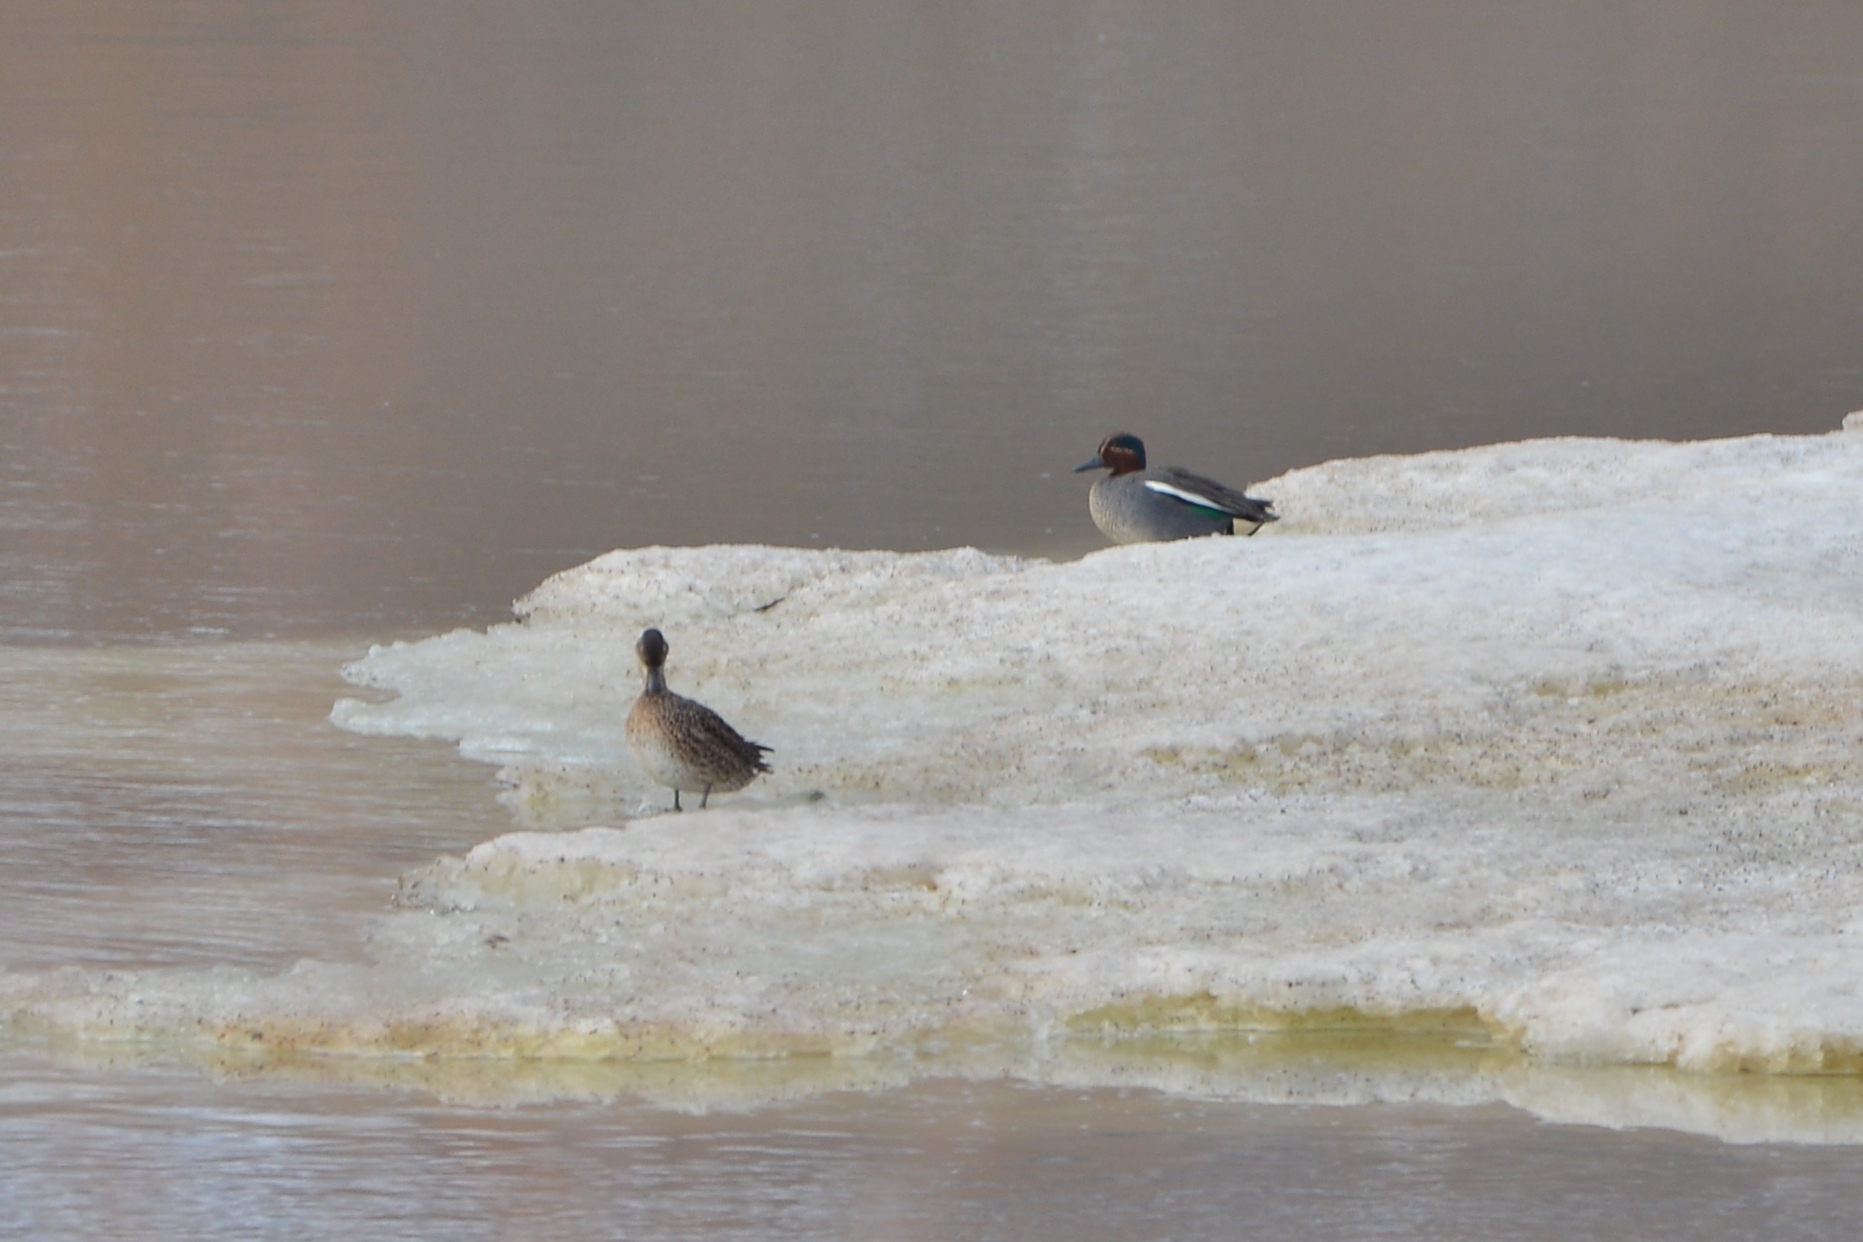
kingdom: Animalia
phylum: Chordata
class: Aves
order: Anseriformes
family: Anatidae
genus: Anas
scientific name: Anas crecca
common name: Eurasian teal
